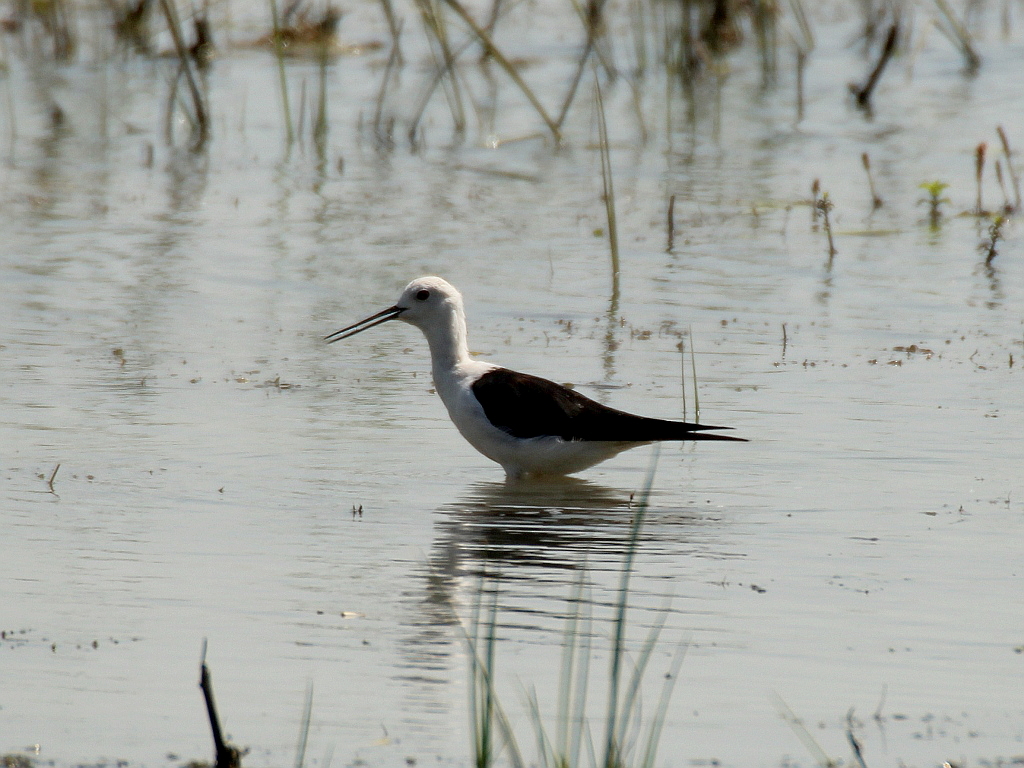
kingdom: Animalia
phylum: Chordata
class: Aves
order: Charadriiformes
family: Recurvirostridae
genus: Himantopus
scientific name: Himantopus himantopus
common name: Black-winged stilt
